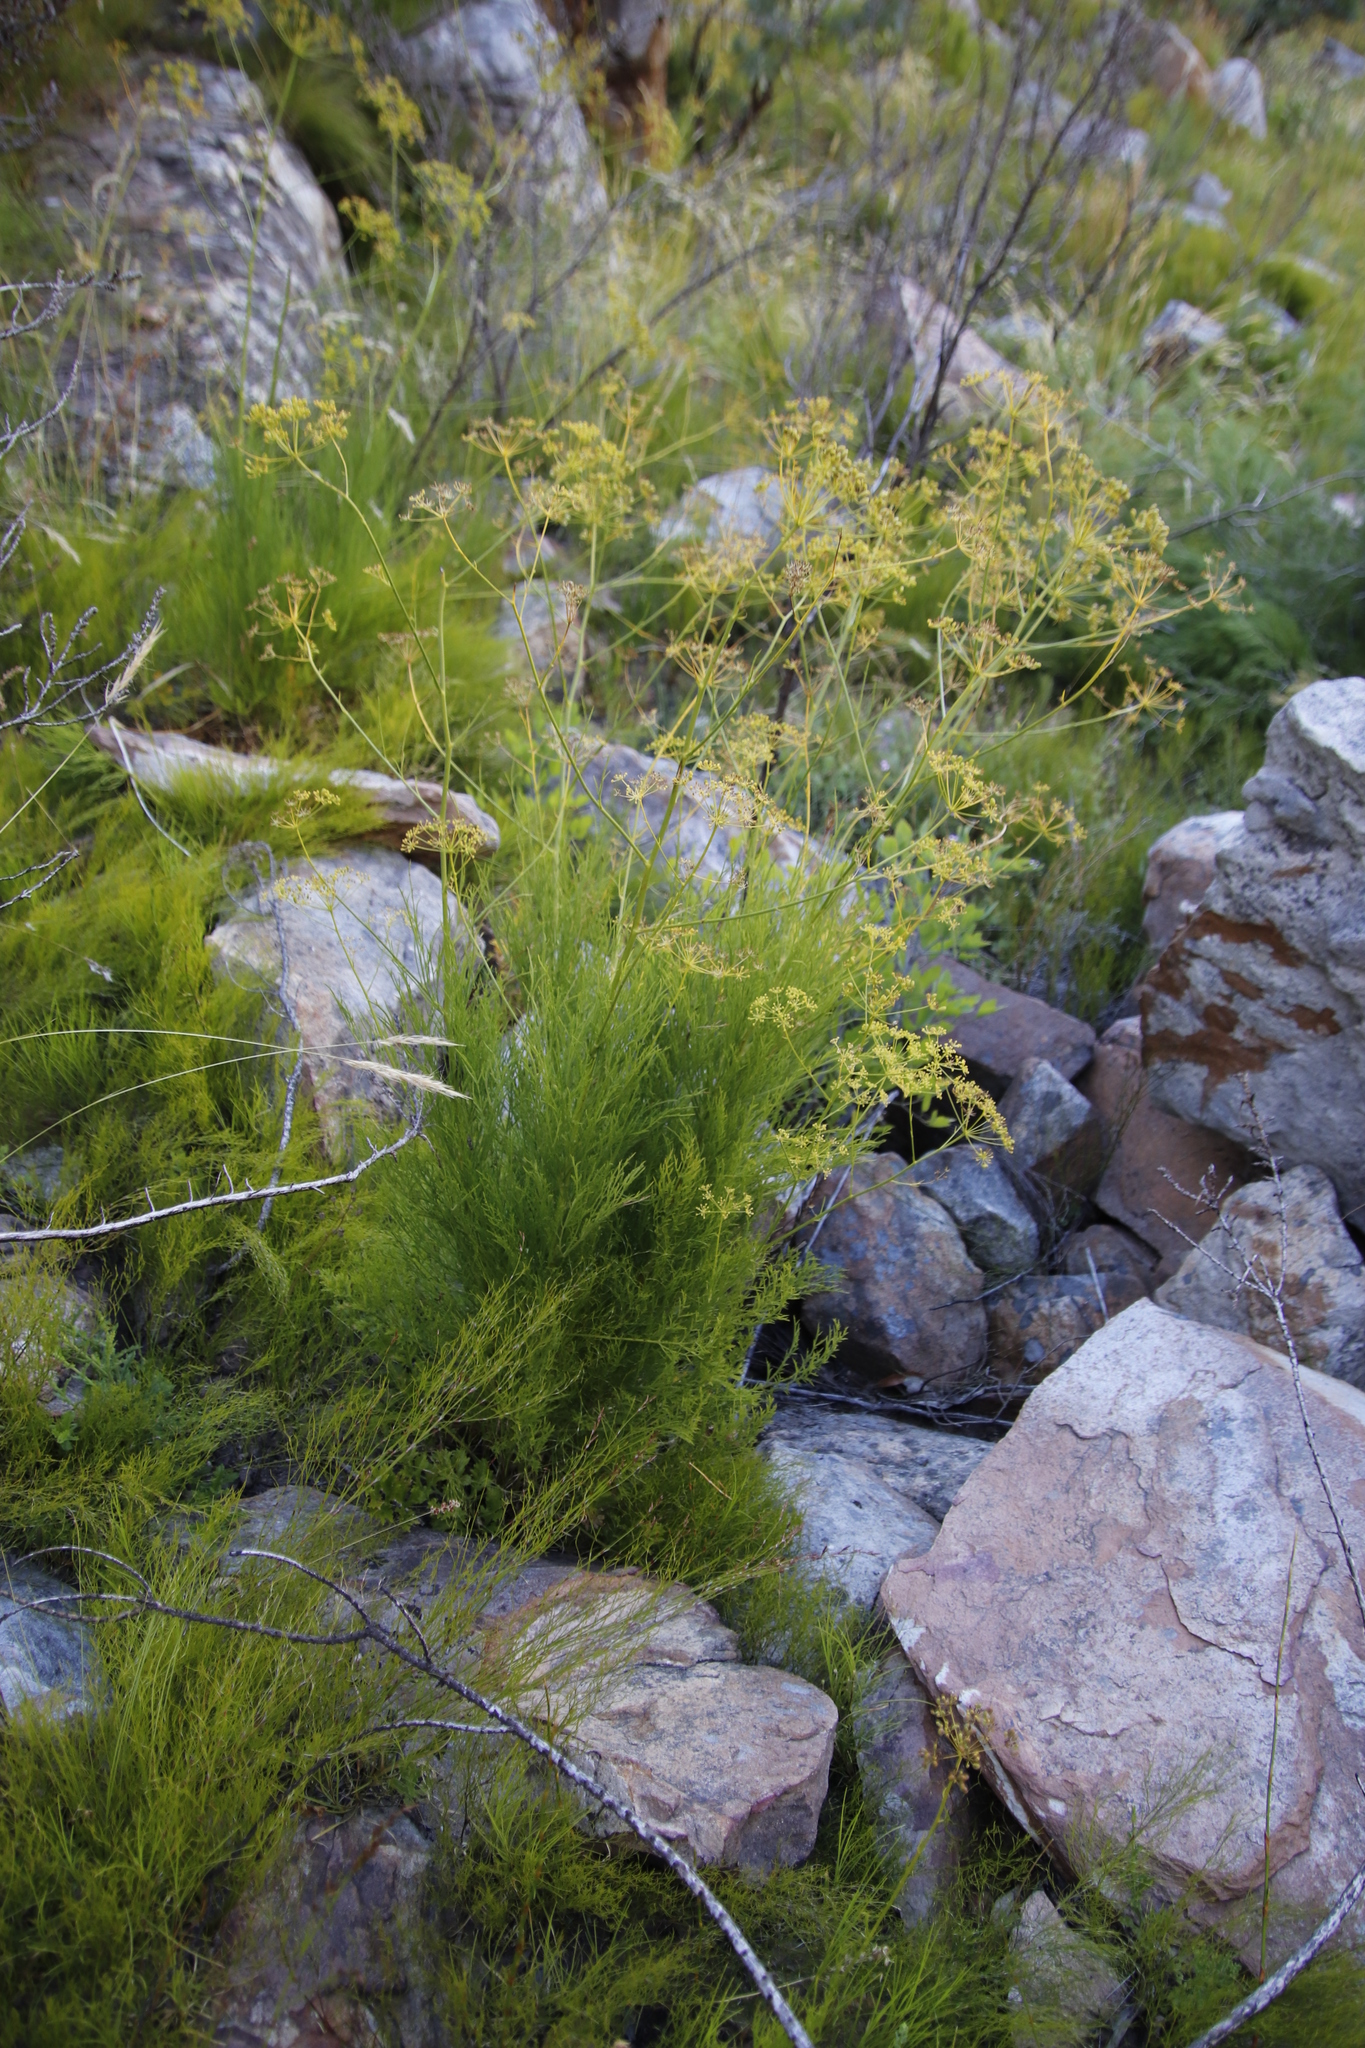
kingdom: Plantae
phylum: Tracheophyta
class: Magnoliopsida
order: Apiales
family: Apiaceae
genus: Glia
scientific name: Glia prolifera
